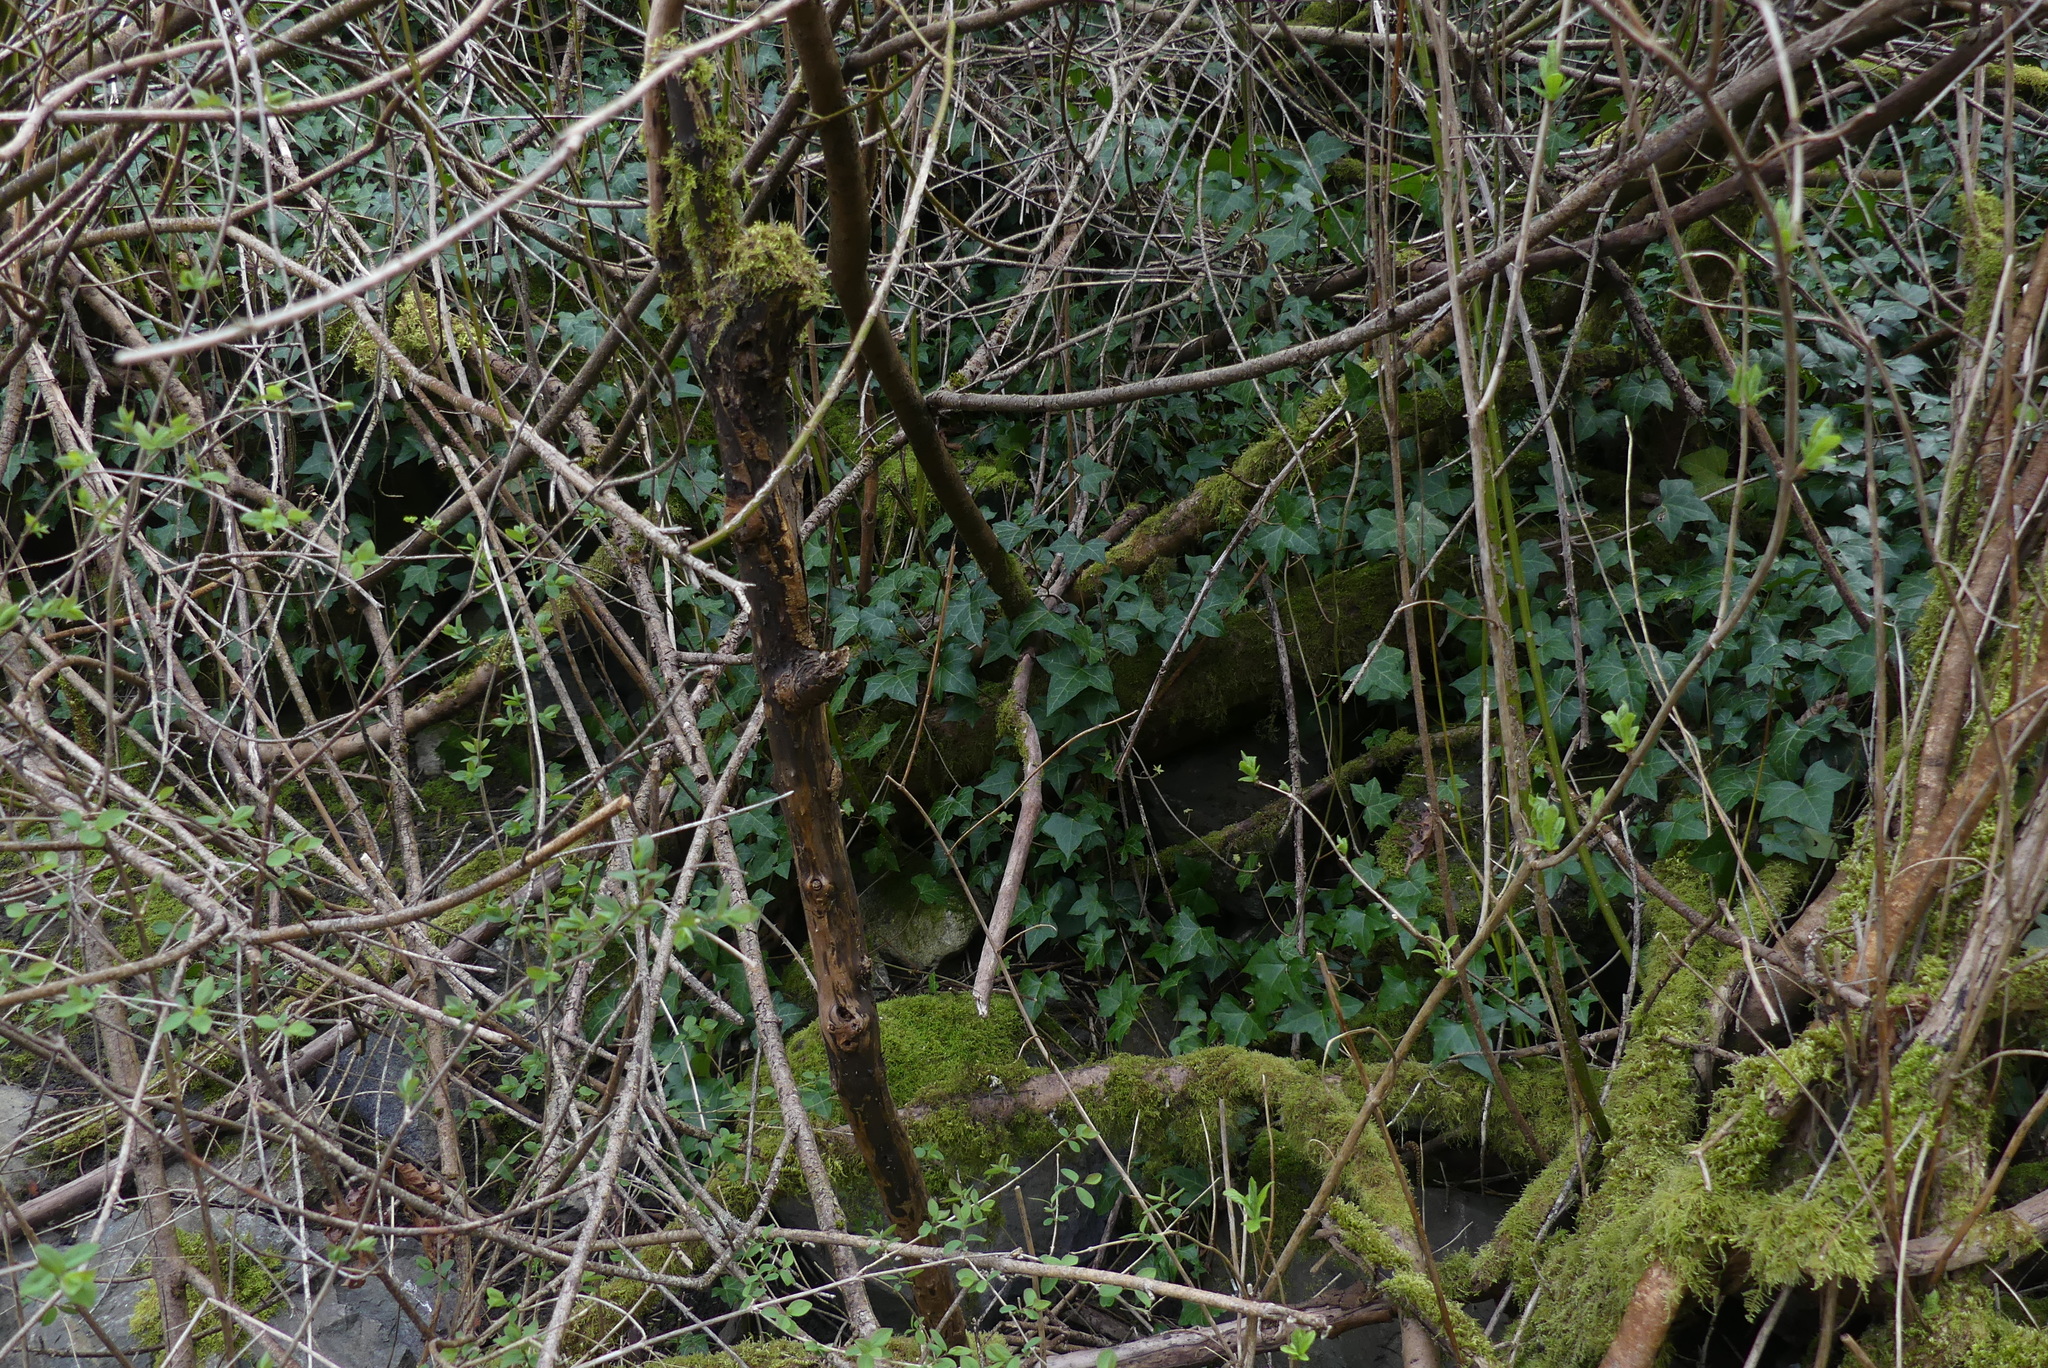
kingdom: Plantae
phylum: Tracheophyta
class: Magnoliopsida
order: Apiales
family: Araliaceae
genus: Hedera
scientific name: Hedera helix
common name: Ivy
